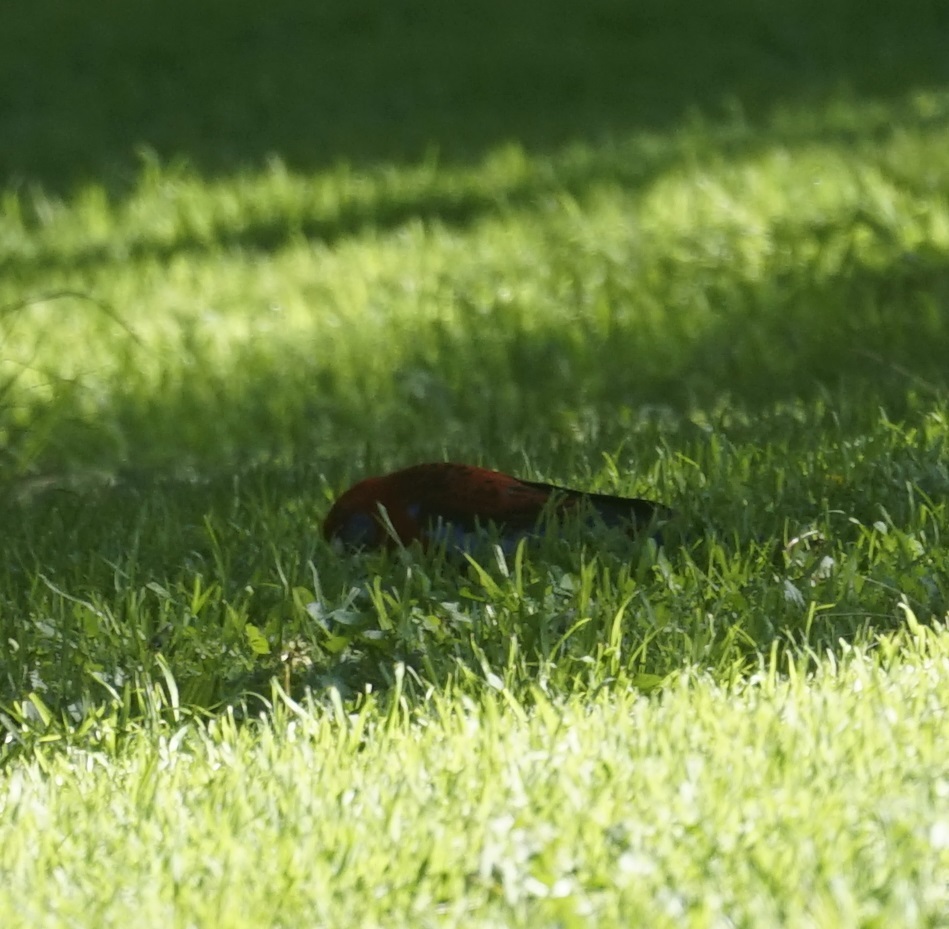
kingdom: Animalia
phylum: Chordata
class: Aves
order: Psittaciformes
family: Psittacidae
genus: Platycercus
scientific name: Platycercus elegans
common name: Crimson rosella
